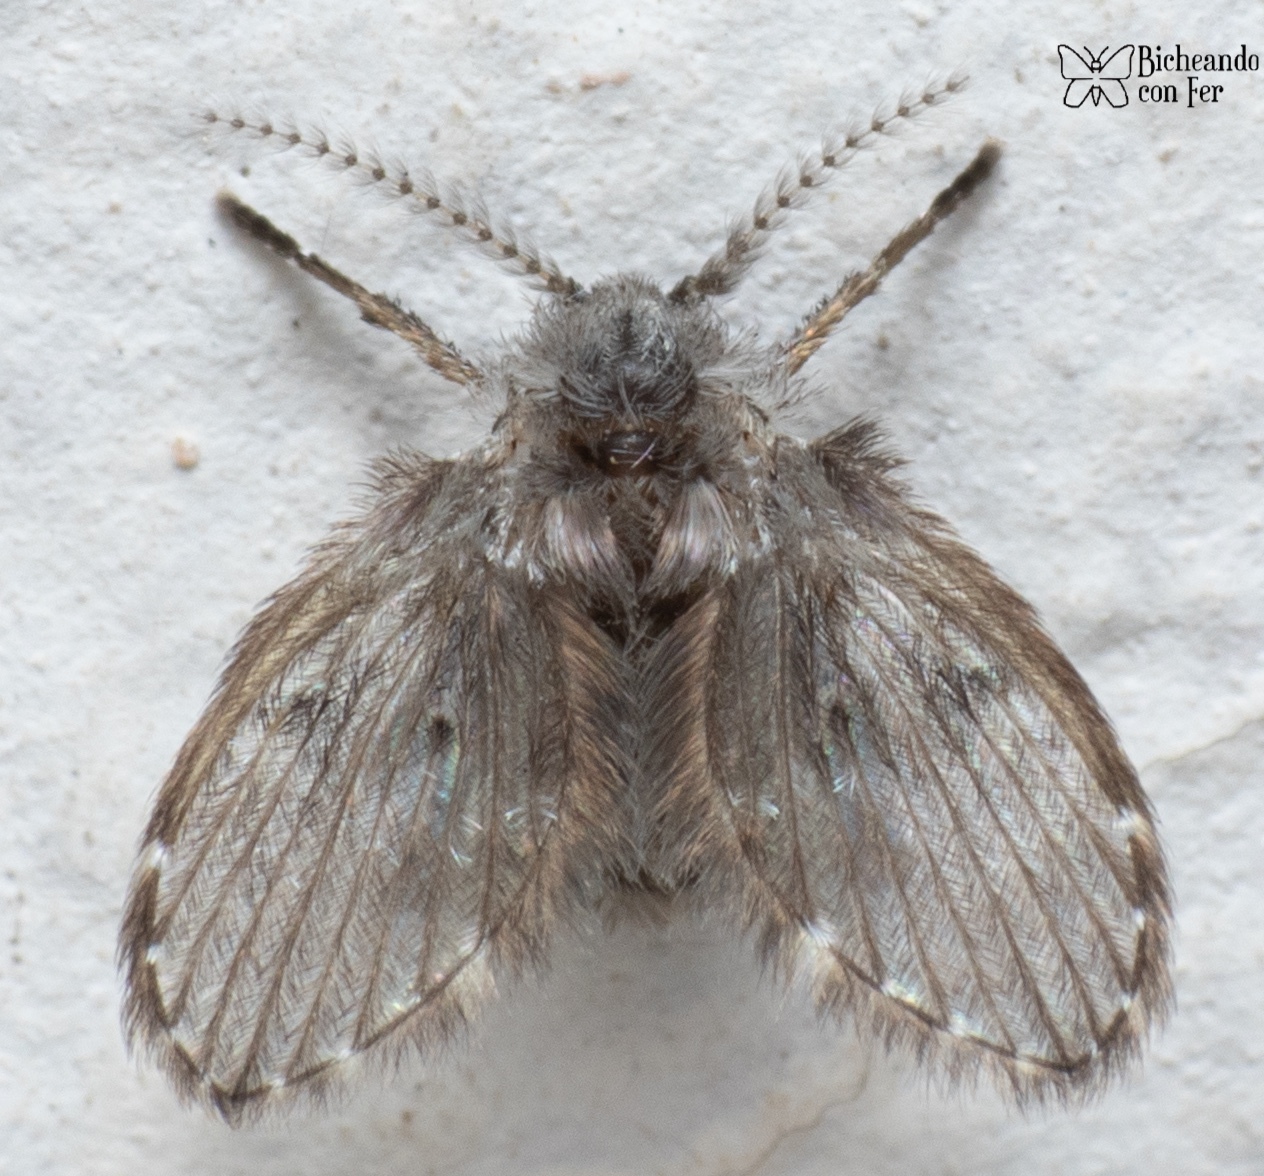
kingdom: Animalia
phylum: Arthropoda
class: Insecta
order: Diptera
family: Psychodidae
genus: Clogmia
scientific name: Clogmia albipunctatus
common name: White-spotted moth fly
